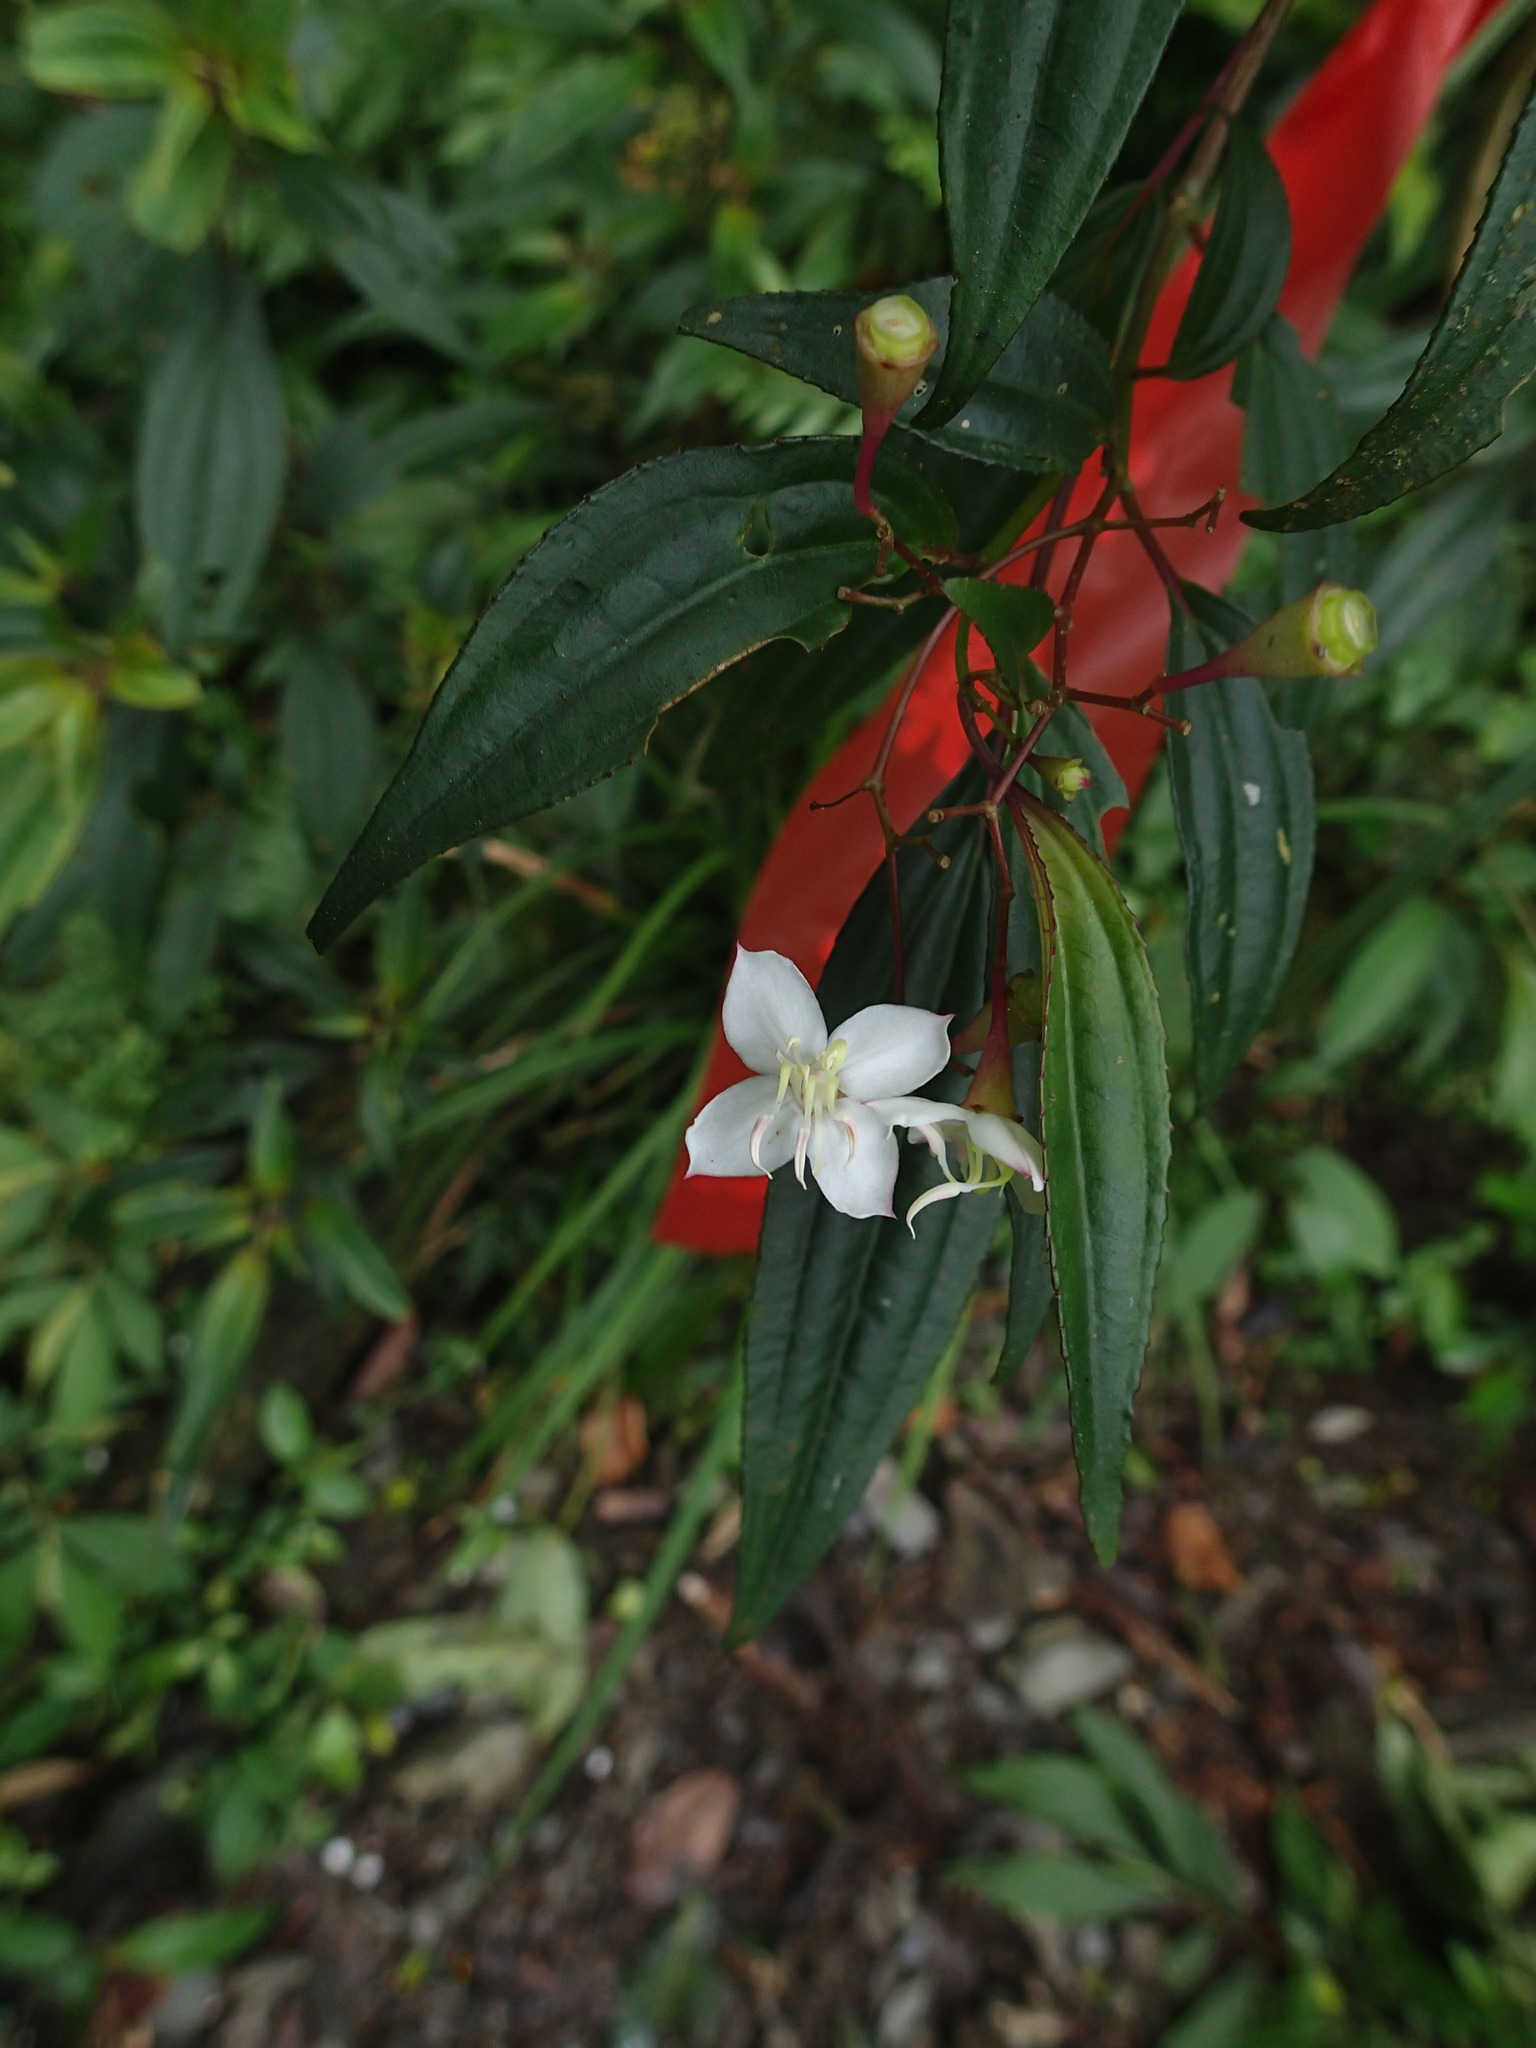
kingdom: Plantae
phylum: Tracheophyta
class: Magnoliopsida
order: Myrtales
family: Melastomataceae
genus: Bredia
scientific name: Bredia oldhamii
